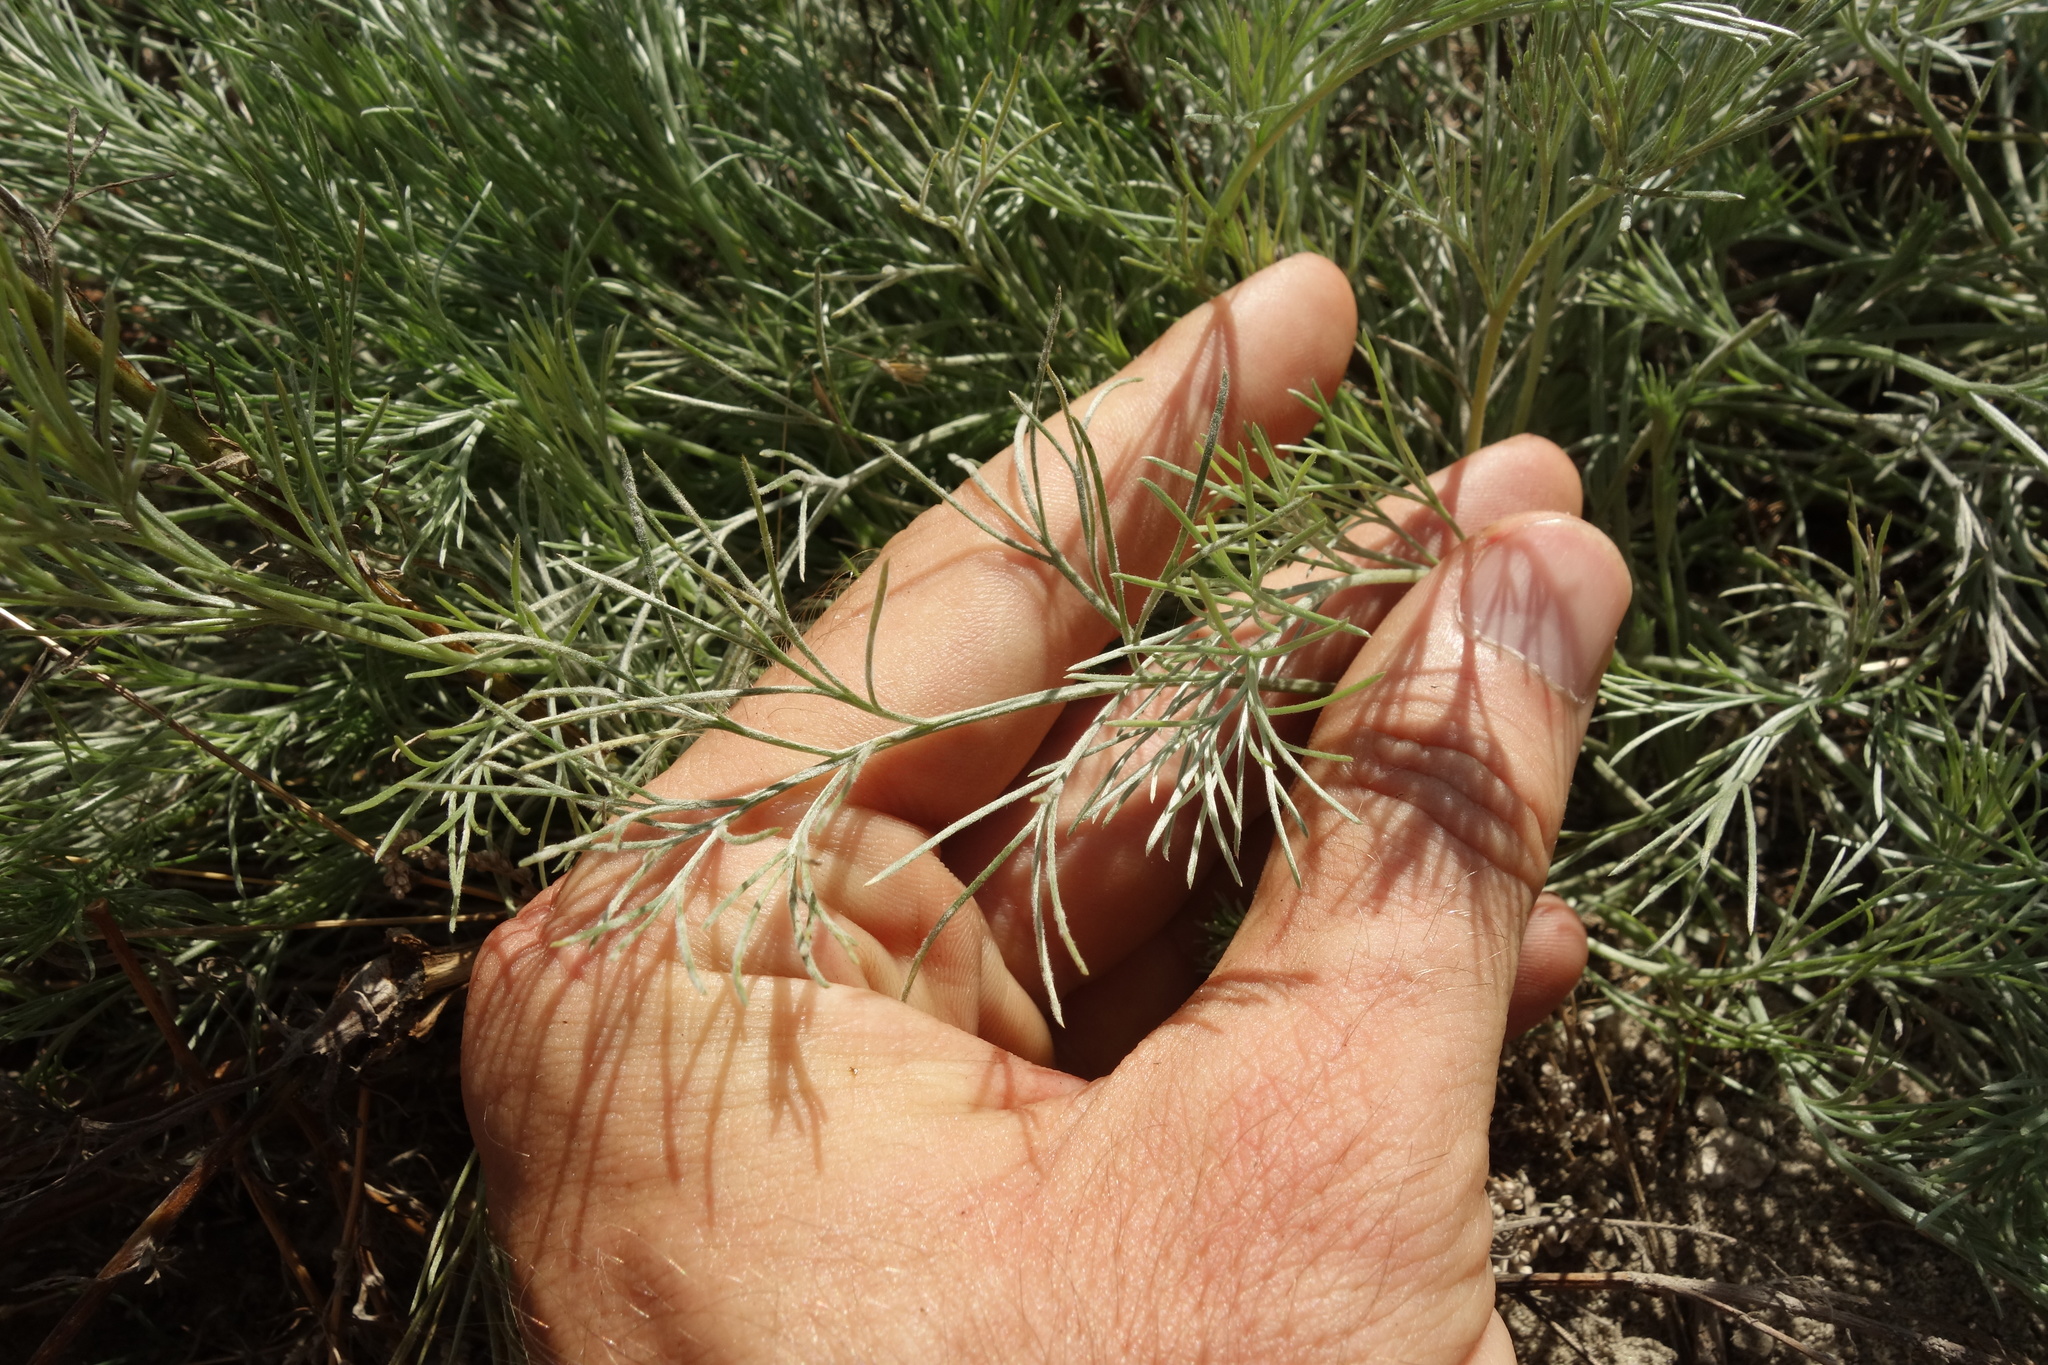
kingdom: Plantae
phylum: Tracheophyta
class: Magnoliopsida
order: Asterales
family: Asteraceae
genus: Artemisia
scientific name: Artemisia campestris
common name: Field wormwood
